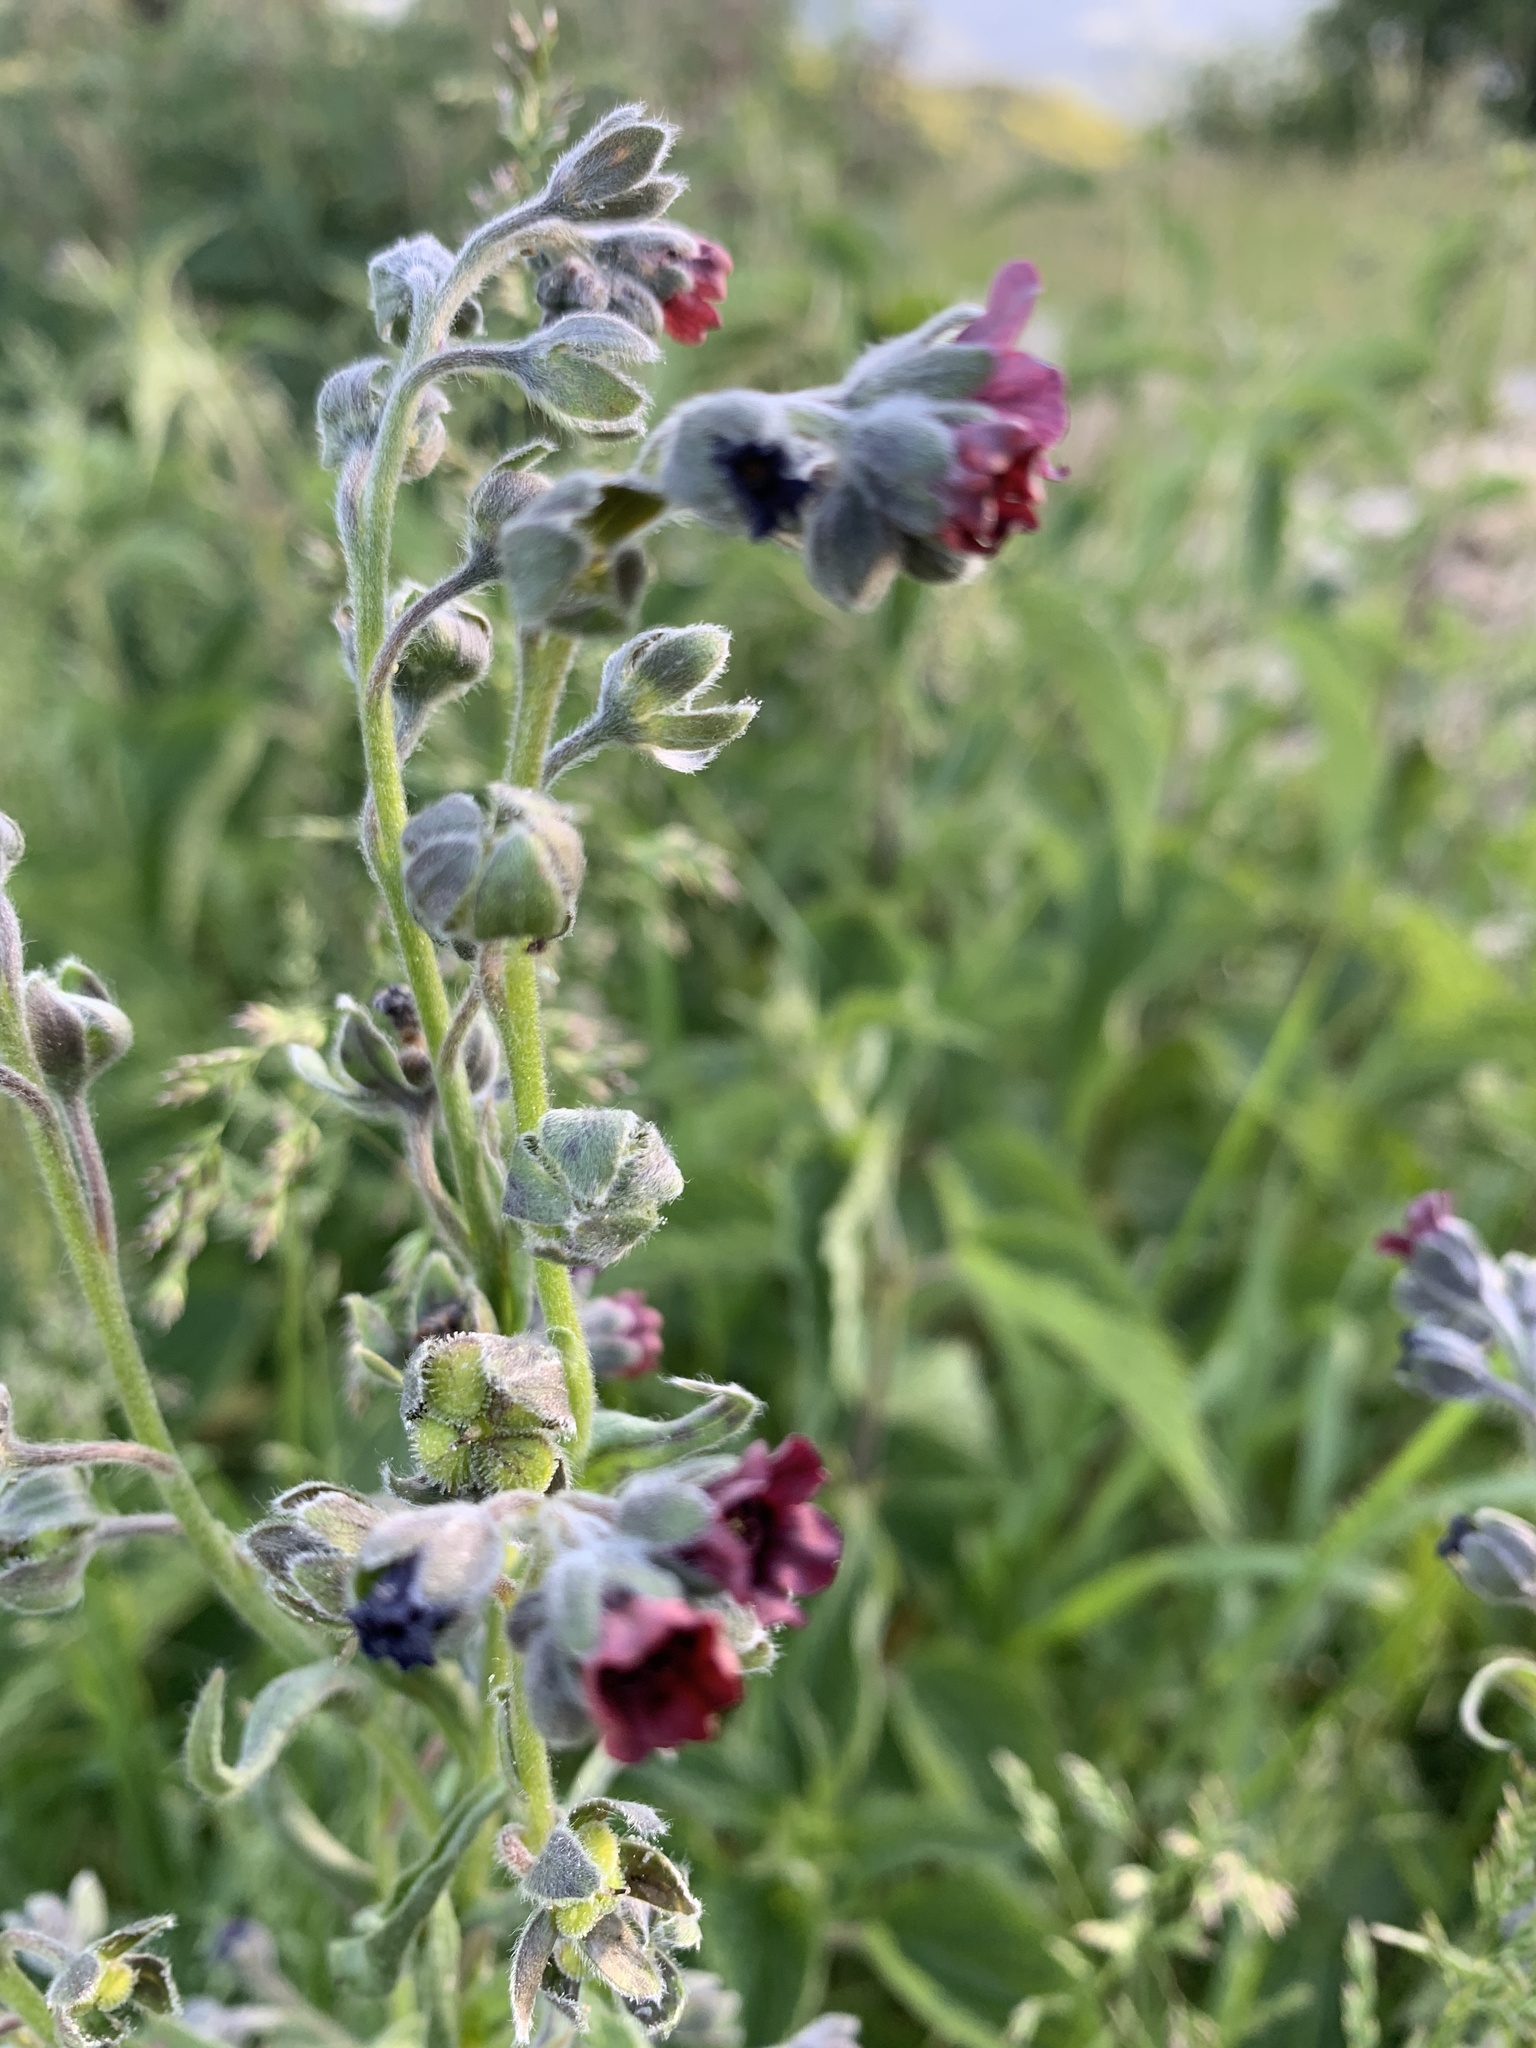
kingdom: Plantae
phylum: Tracheophyta
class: Magnoliopsida
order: Boraginales
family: Boraginaceae
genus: Cynoglossum
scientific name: Cynoglossum officinale
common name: Hound's-tongue
